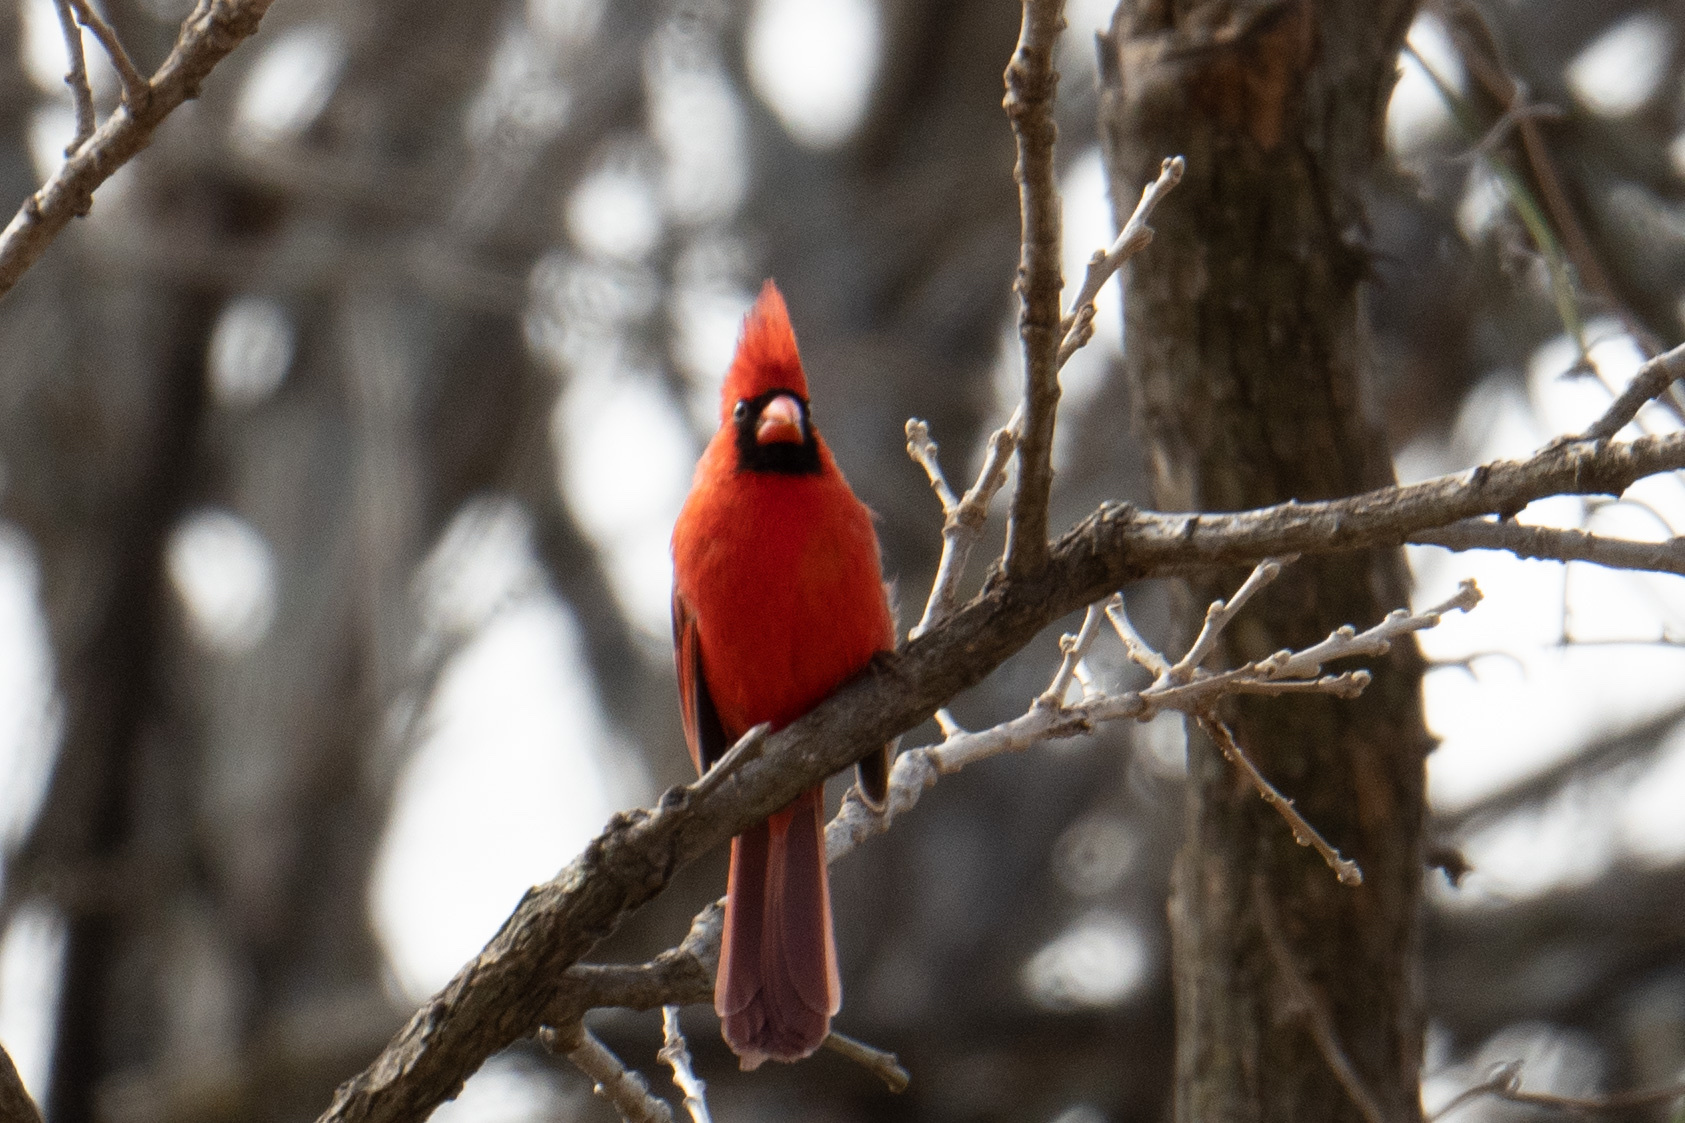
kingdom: Animalia
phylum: Chordata
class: Aves
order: Passeriformes
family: Cardinalidae
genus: Cardinalis
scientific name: Cardinalis cardinalis
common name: Northern cardinal
